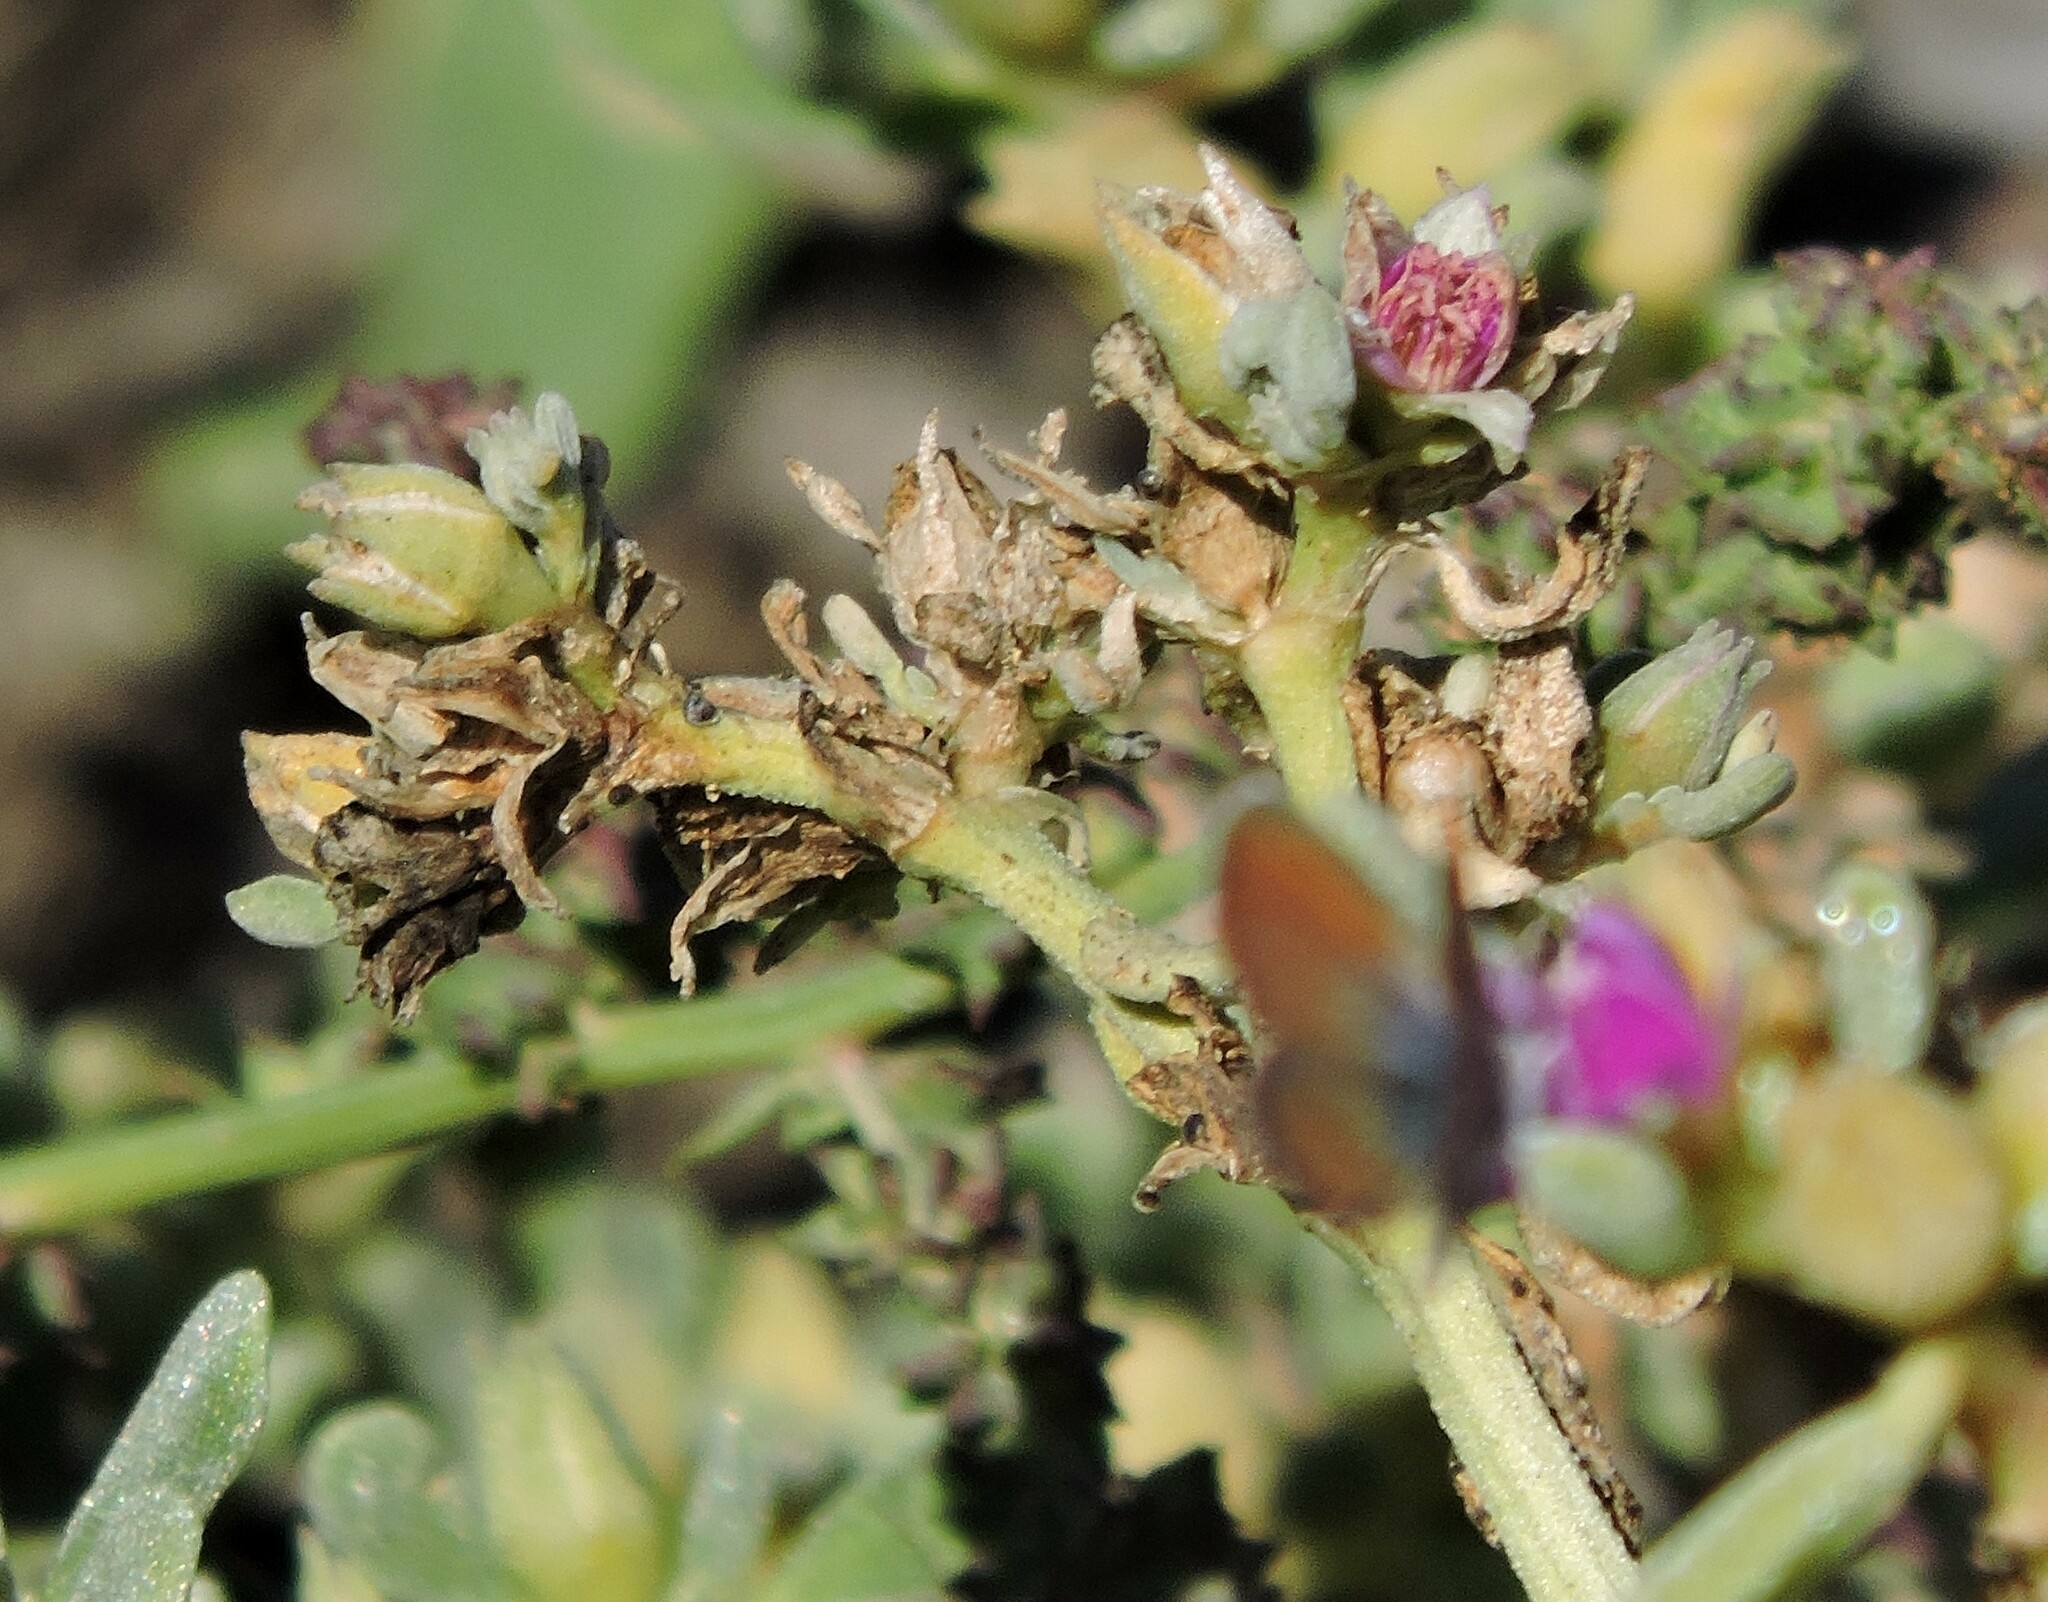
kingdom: Plantae
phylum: Tracheophyta
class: Magnoliopsida
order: Caryophyllales
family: Aizoaceae
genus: Sesuvium
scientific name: Sesuvium revolutifolium
